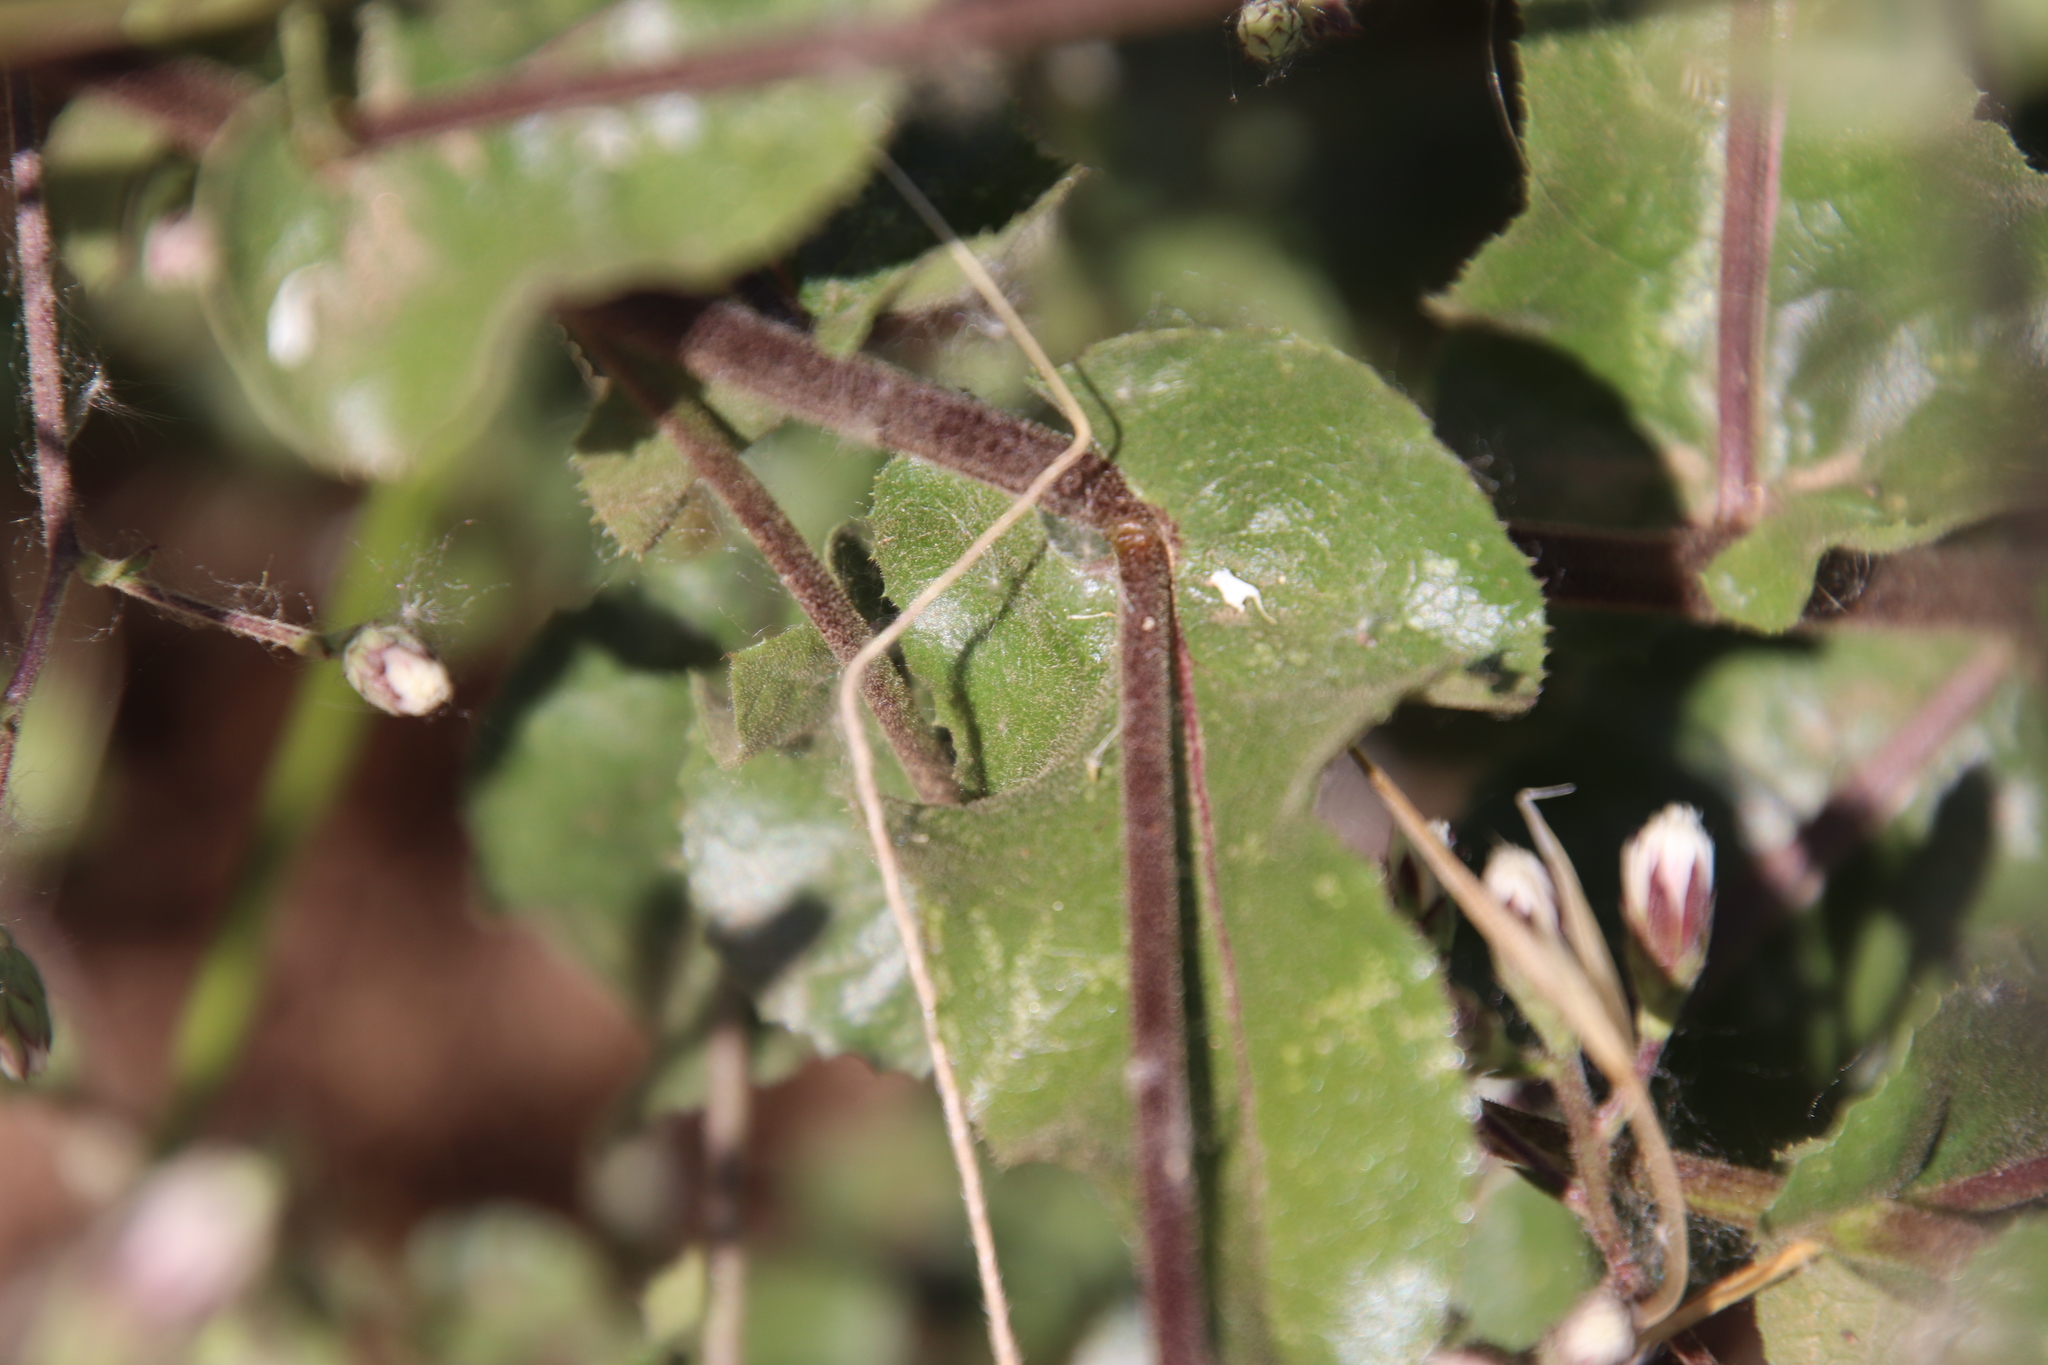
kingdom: Plantae
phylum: Tracheophyta
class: Magnoliopsida
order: Asterales
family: Asteraceae
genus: Acourtia
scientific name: Acourtia microcephala
